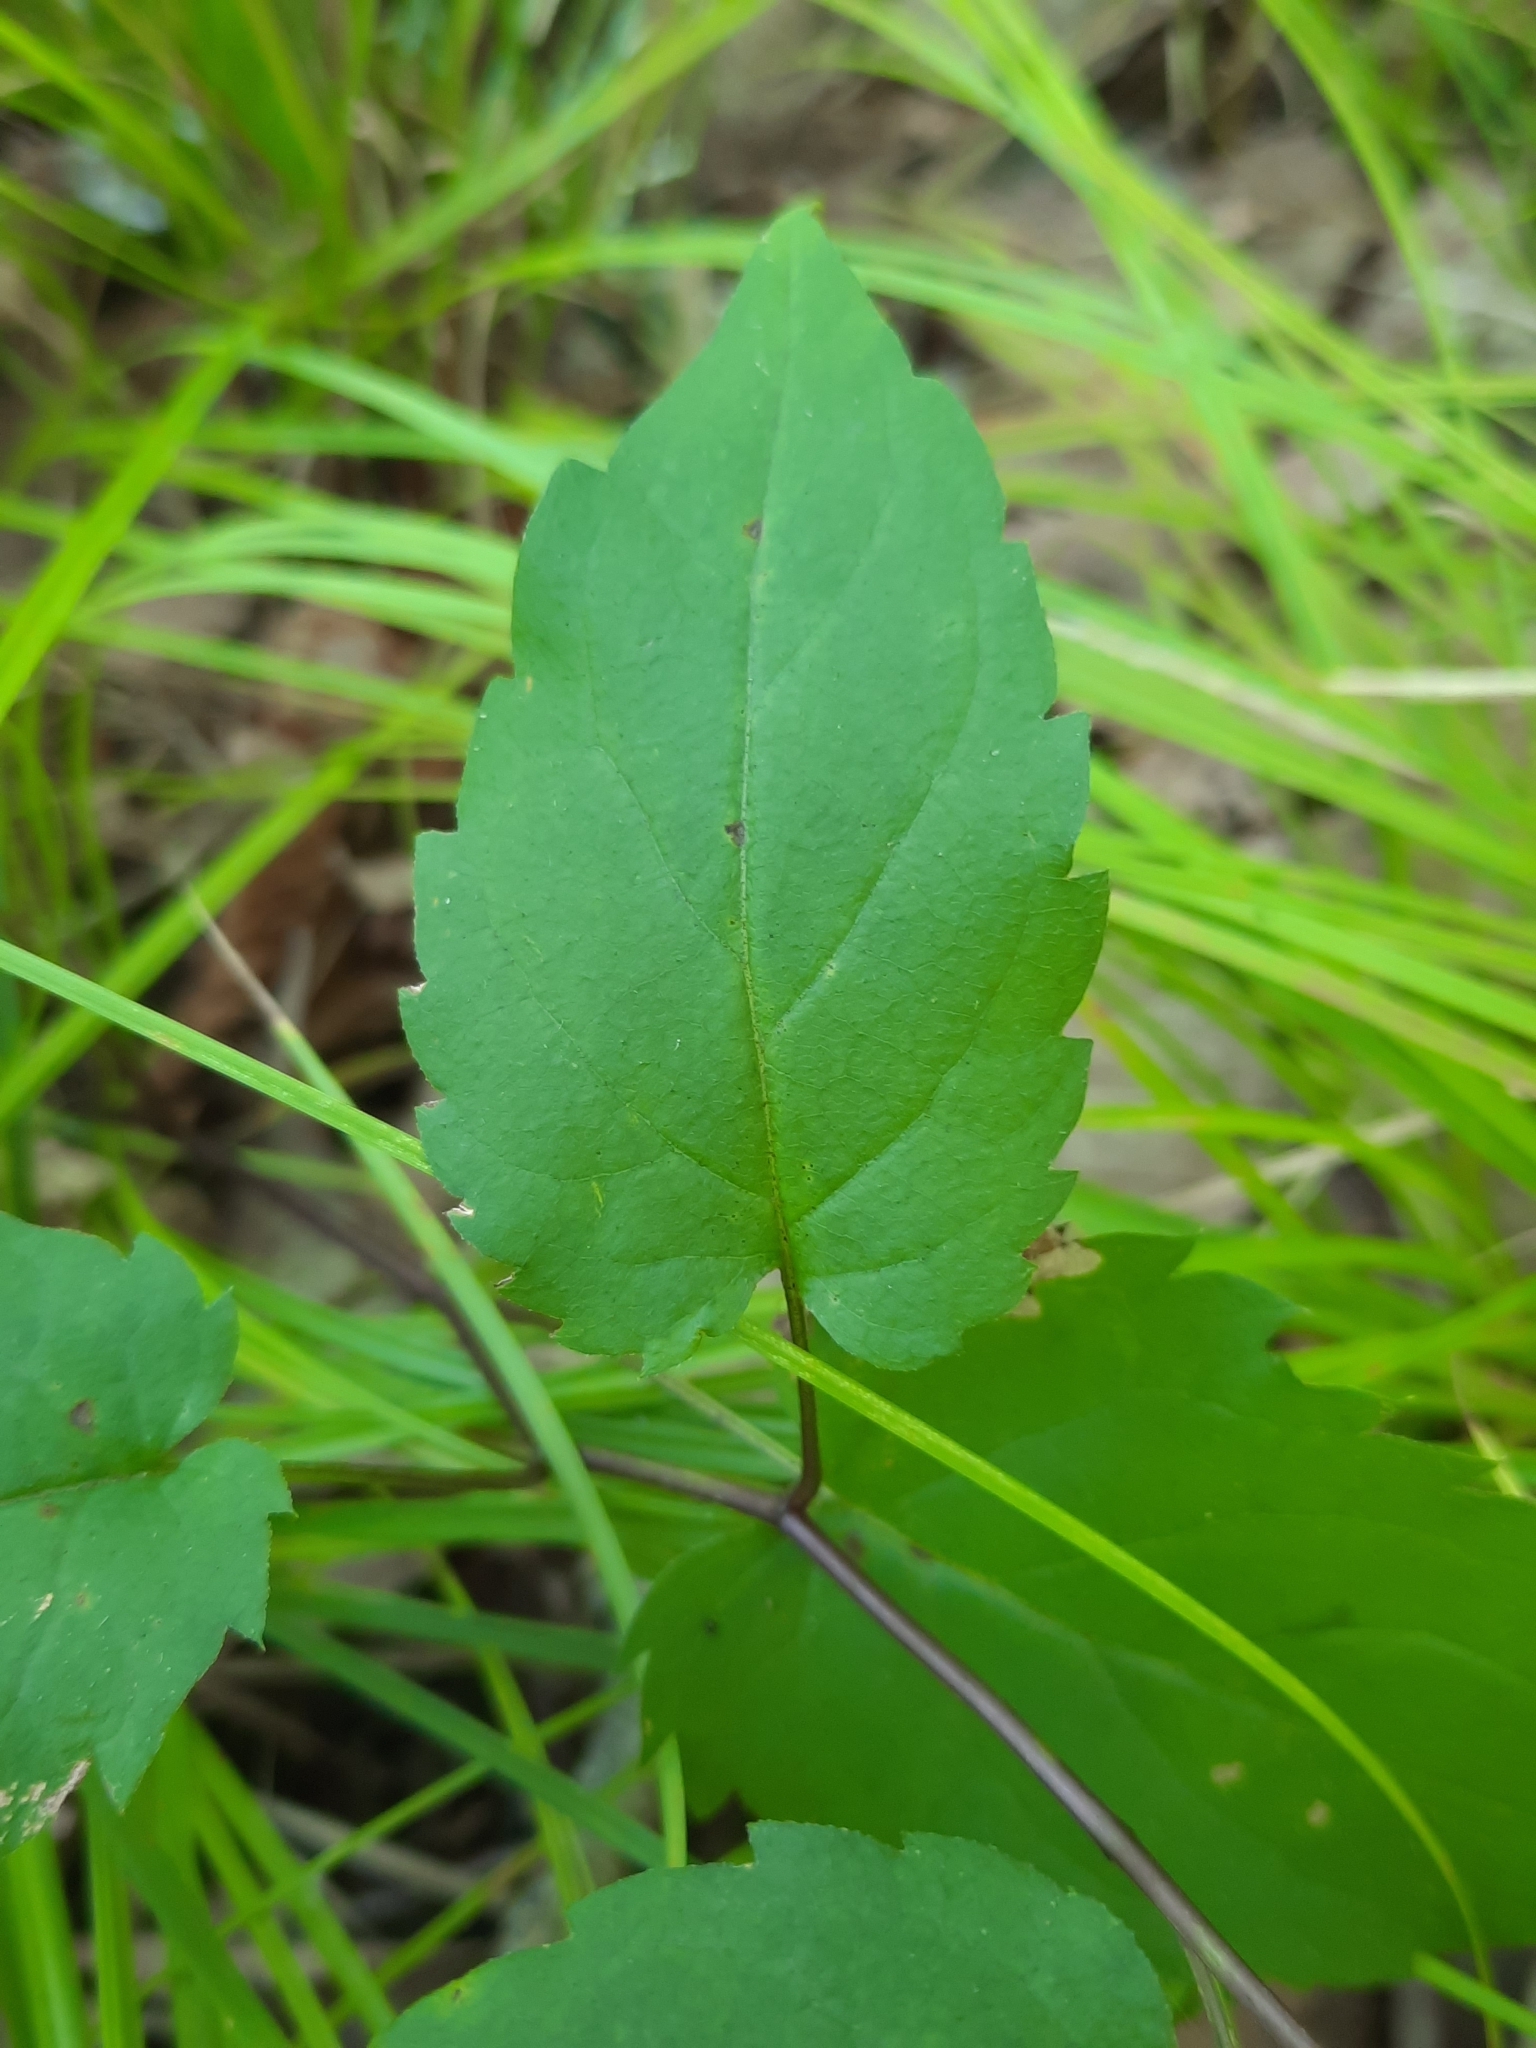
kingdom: Plantae
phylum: Tracheophyta
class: Magnoliopsida
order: Asterales
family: Asteraceae
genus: Eurybia
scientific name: Eurybia divaricata
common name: White wood aster
